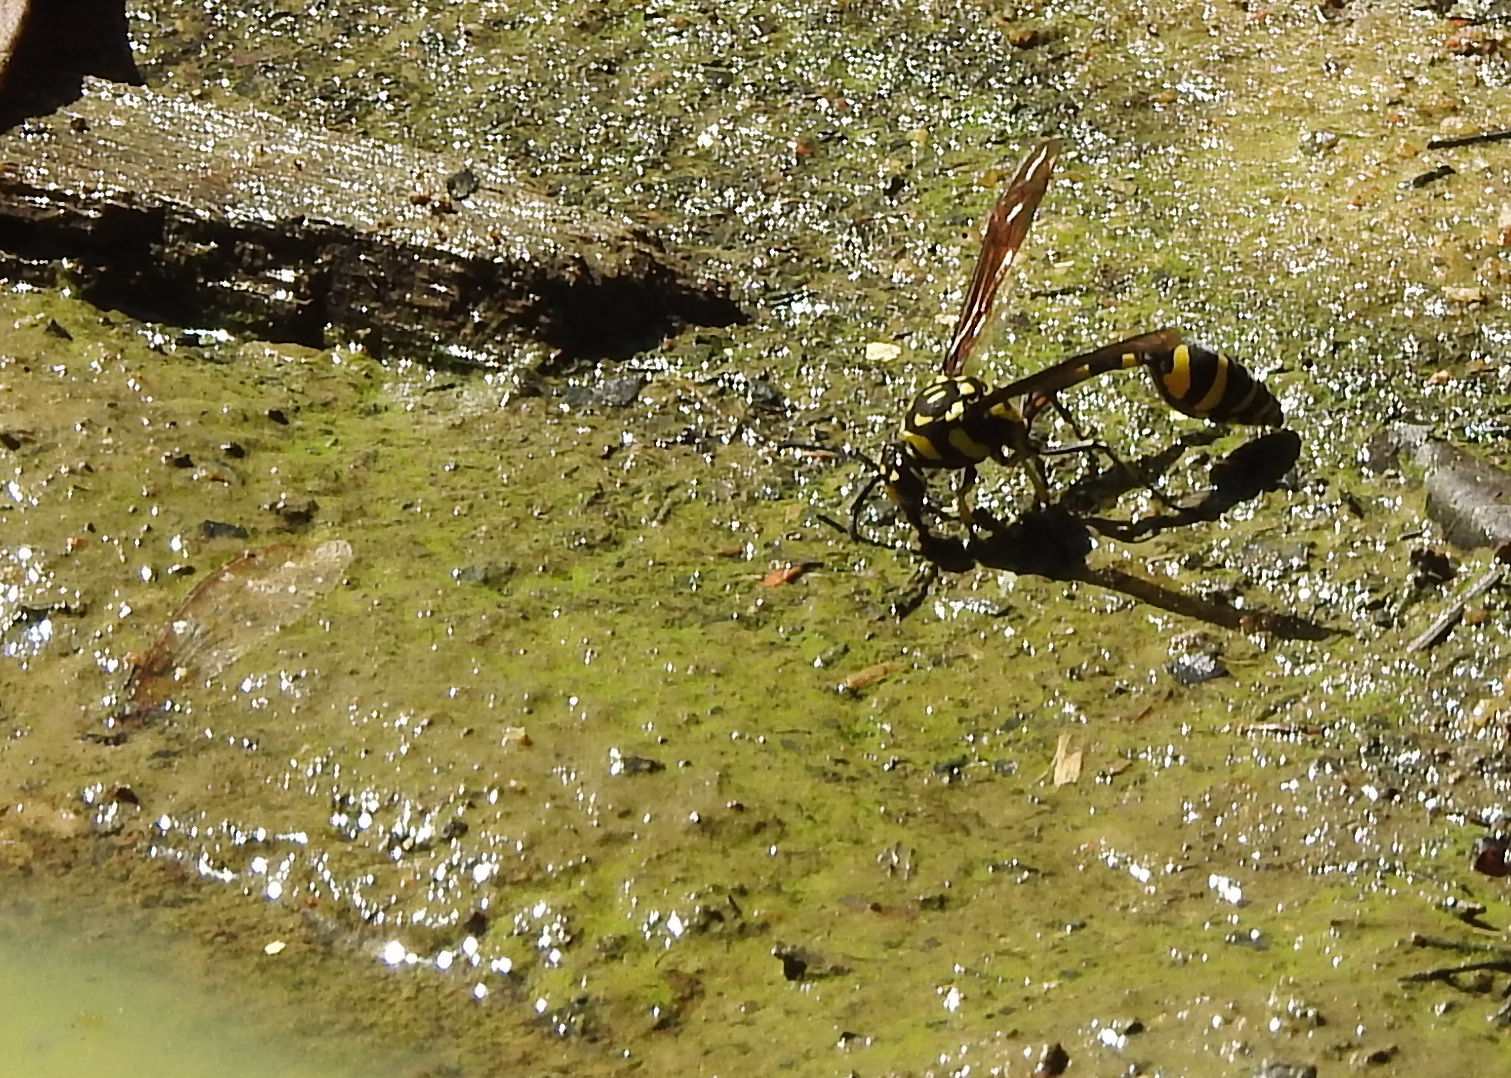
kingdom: Animalia
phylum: Arthropoda
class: Insecta
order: Hymenoptera
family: Eumenidae
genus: Phimenes
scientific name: Phimenes flavopictus
